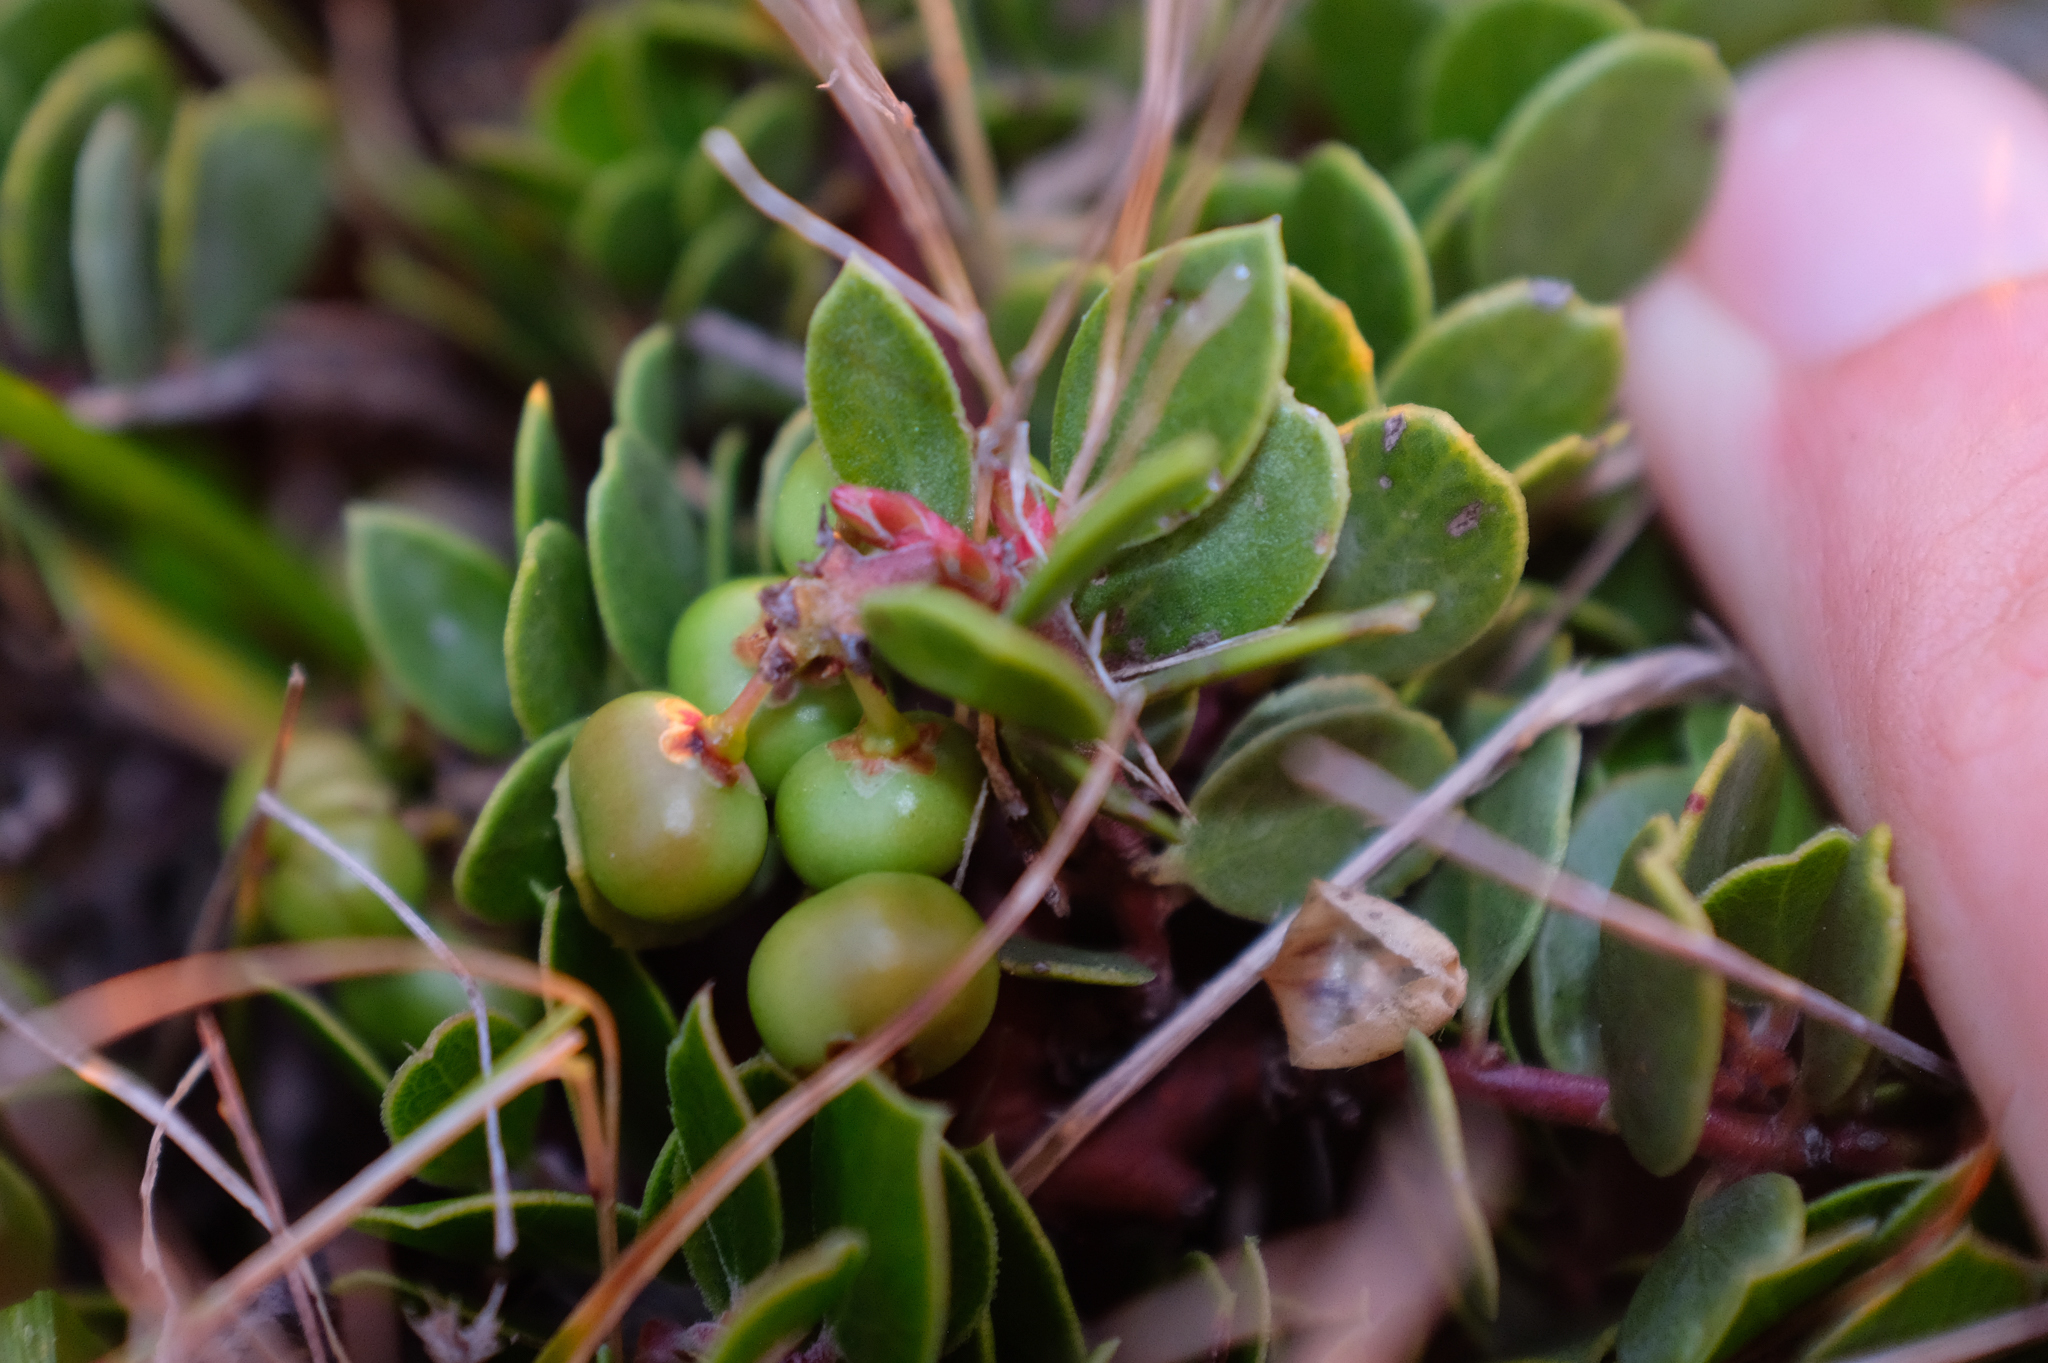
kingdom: Plantae
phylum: Tracheophyta
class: Magnoliopsida
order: Ericales
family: Ericaceae
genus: Arctostaphylos
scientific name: Arctostaphylos hookeri
